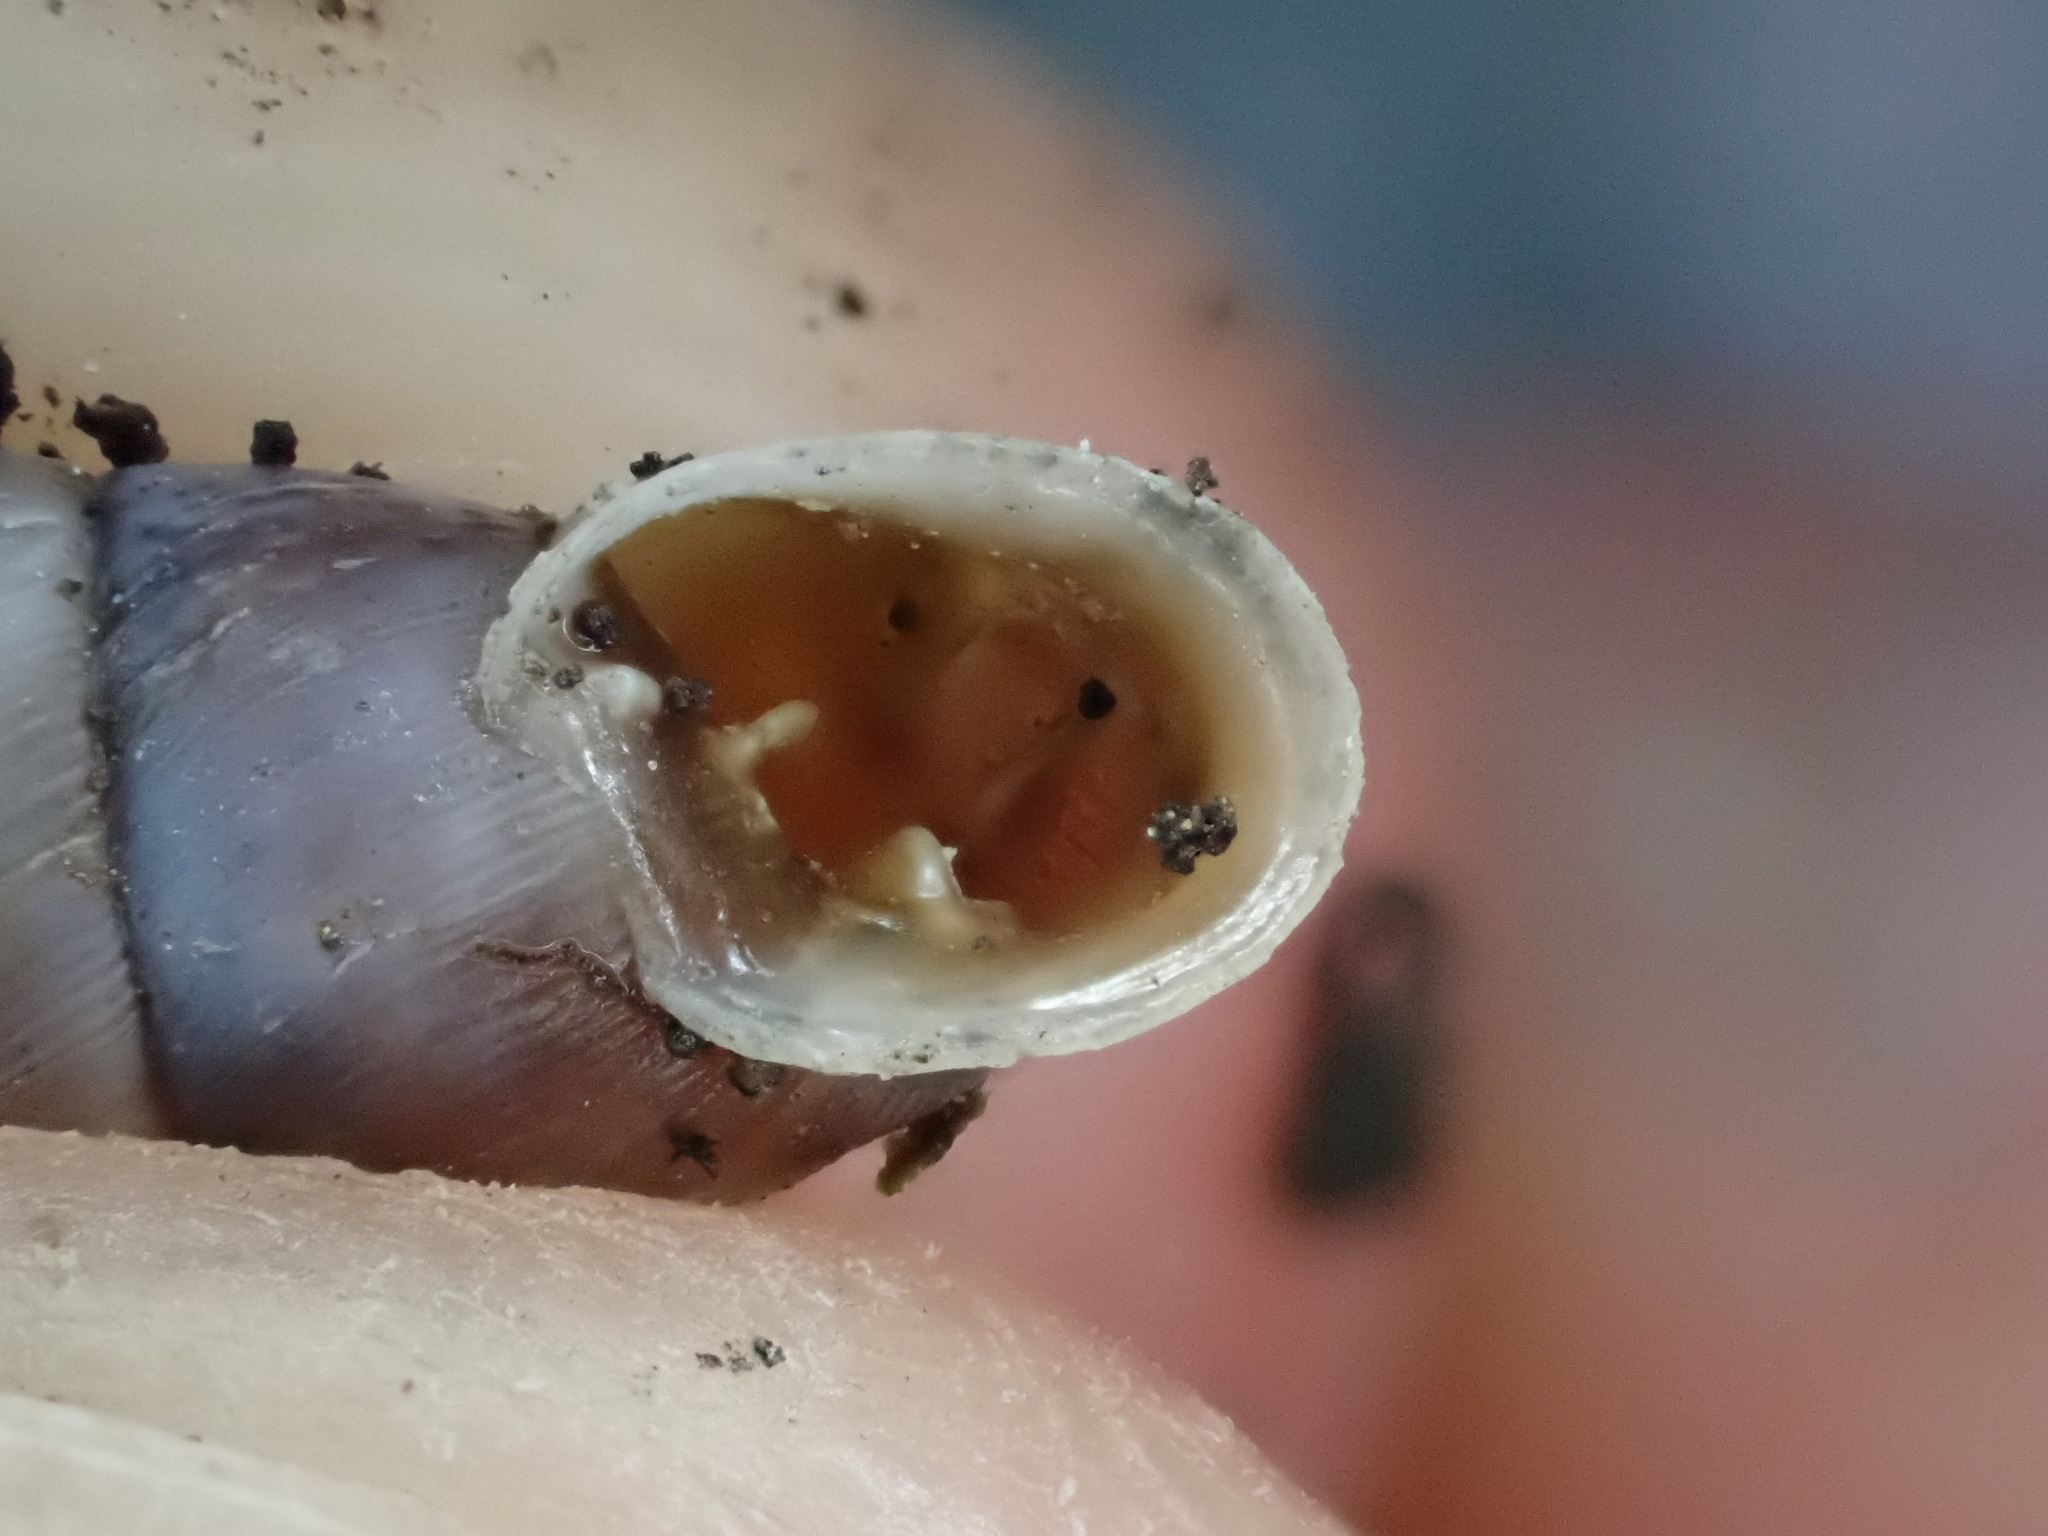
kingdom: Animalia
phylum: Mollusca
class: Gastropoda
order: Stylommatophora
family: Chondrinidae
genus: Solatopupa
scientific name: Solatopupa similis
